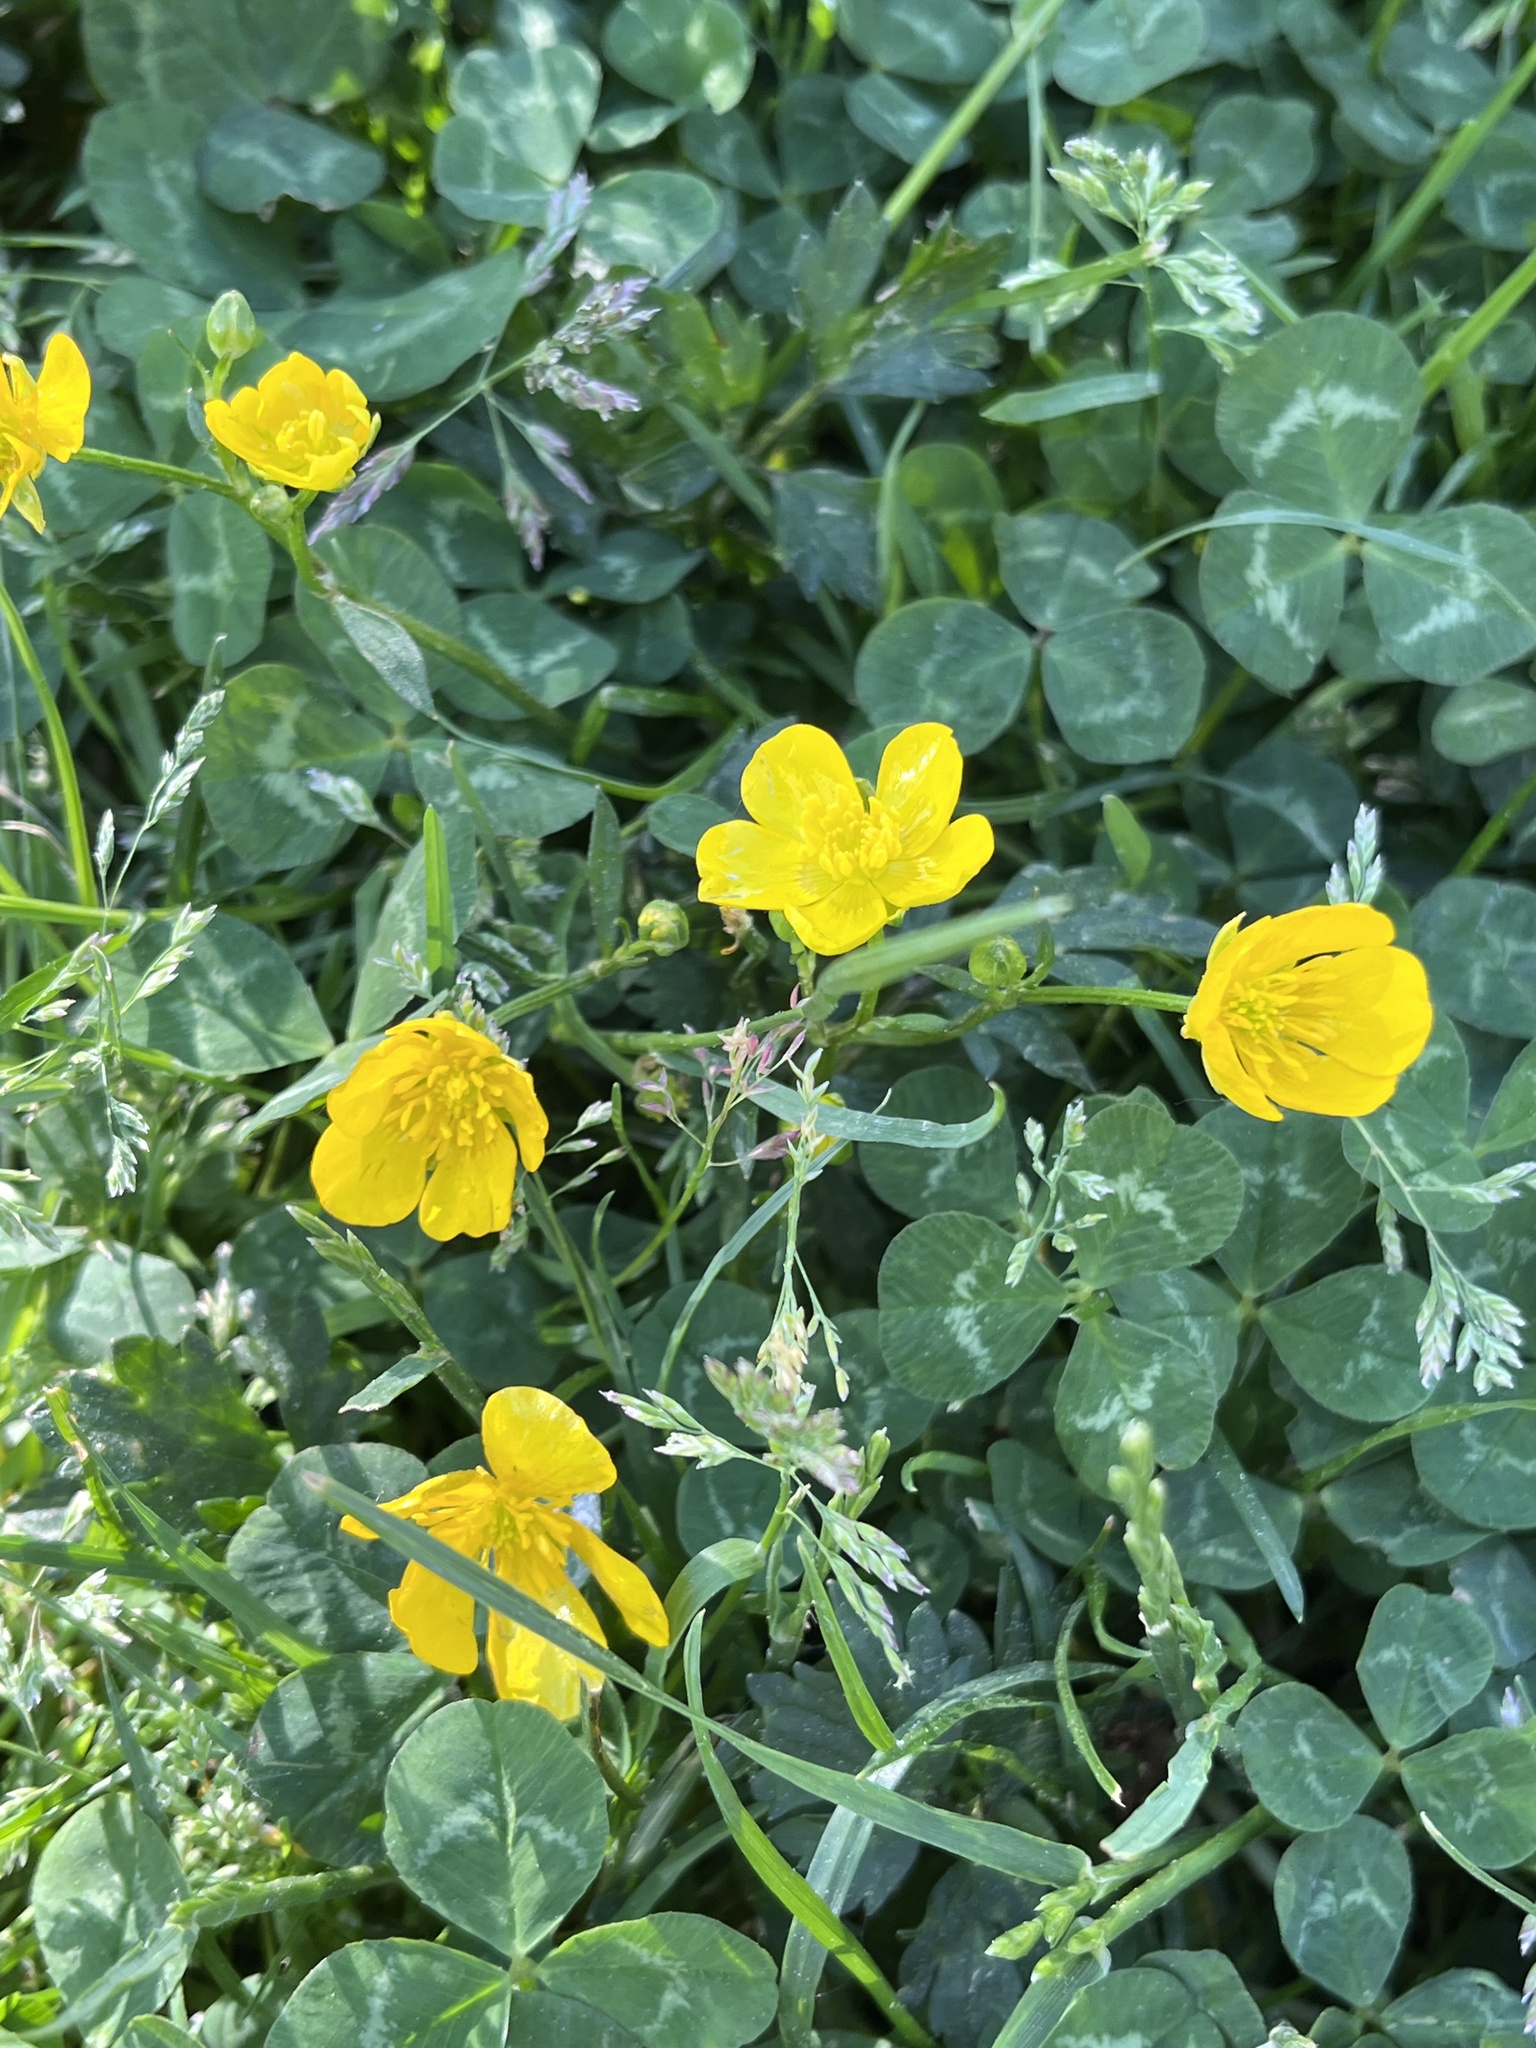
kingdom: Plantae
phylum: Tracheophyta
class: Magnoliopsida
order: Ranunculales
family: Ranunculaceae
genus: Ranunculus
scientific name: Ranunculus repens
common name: Creeping buttercup
